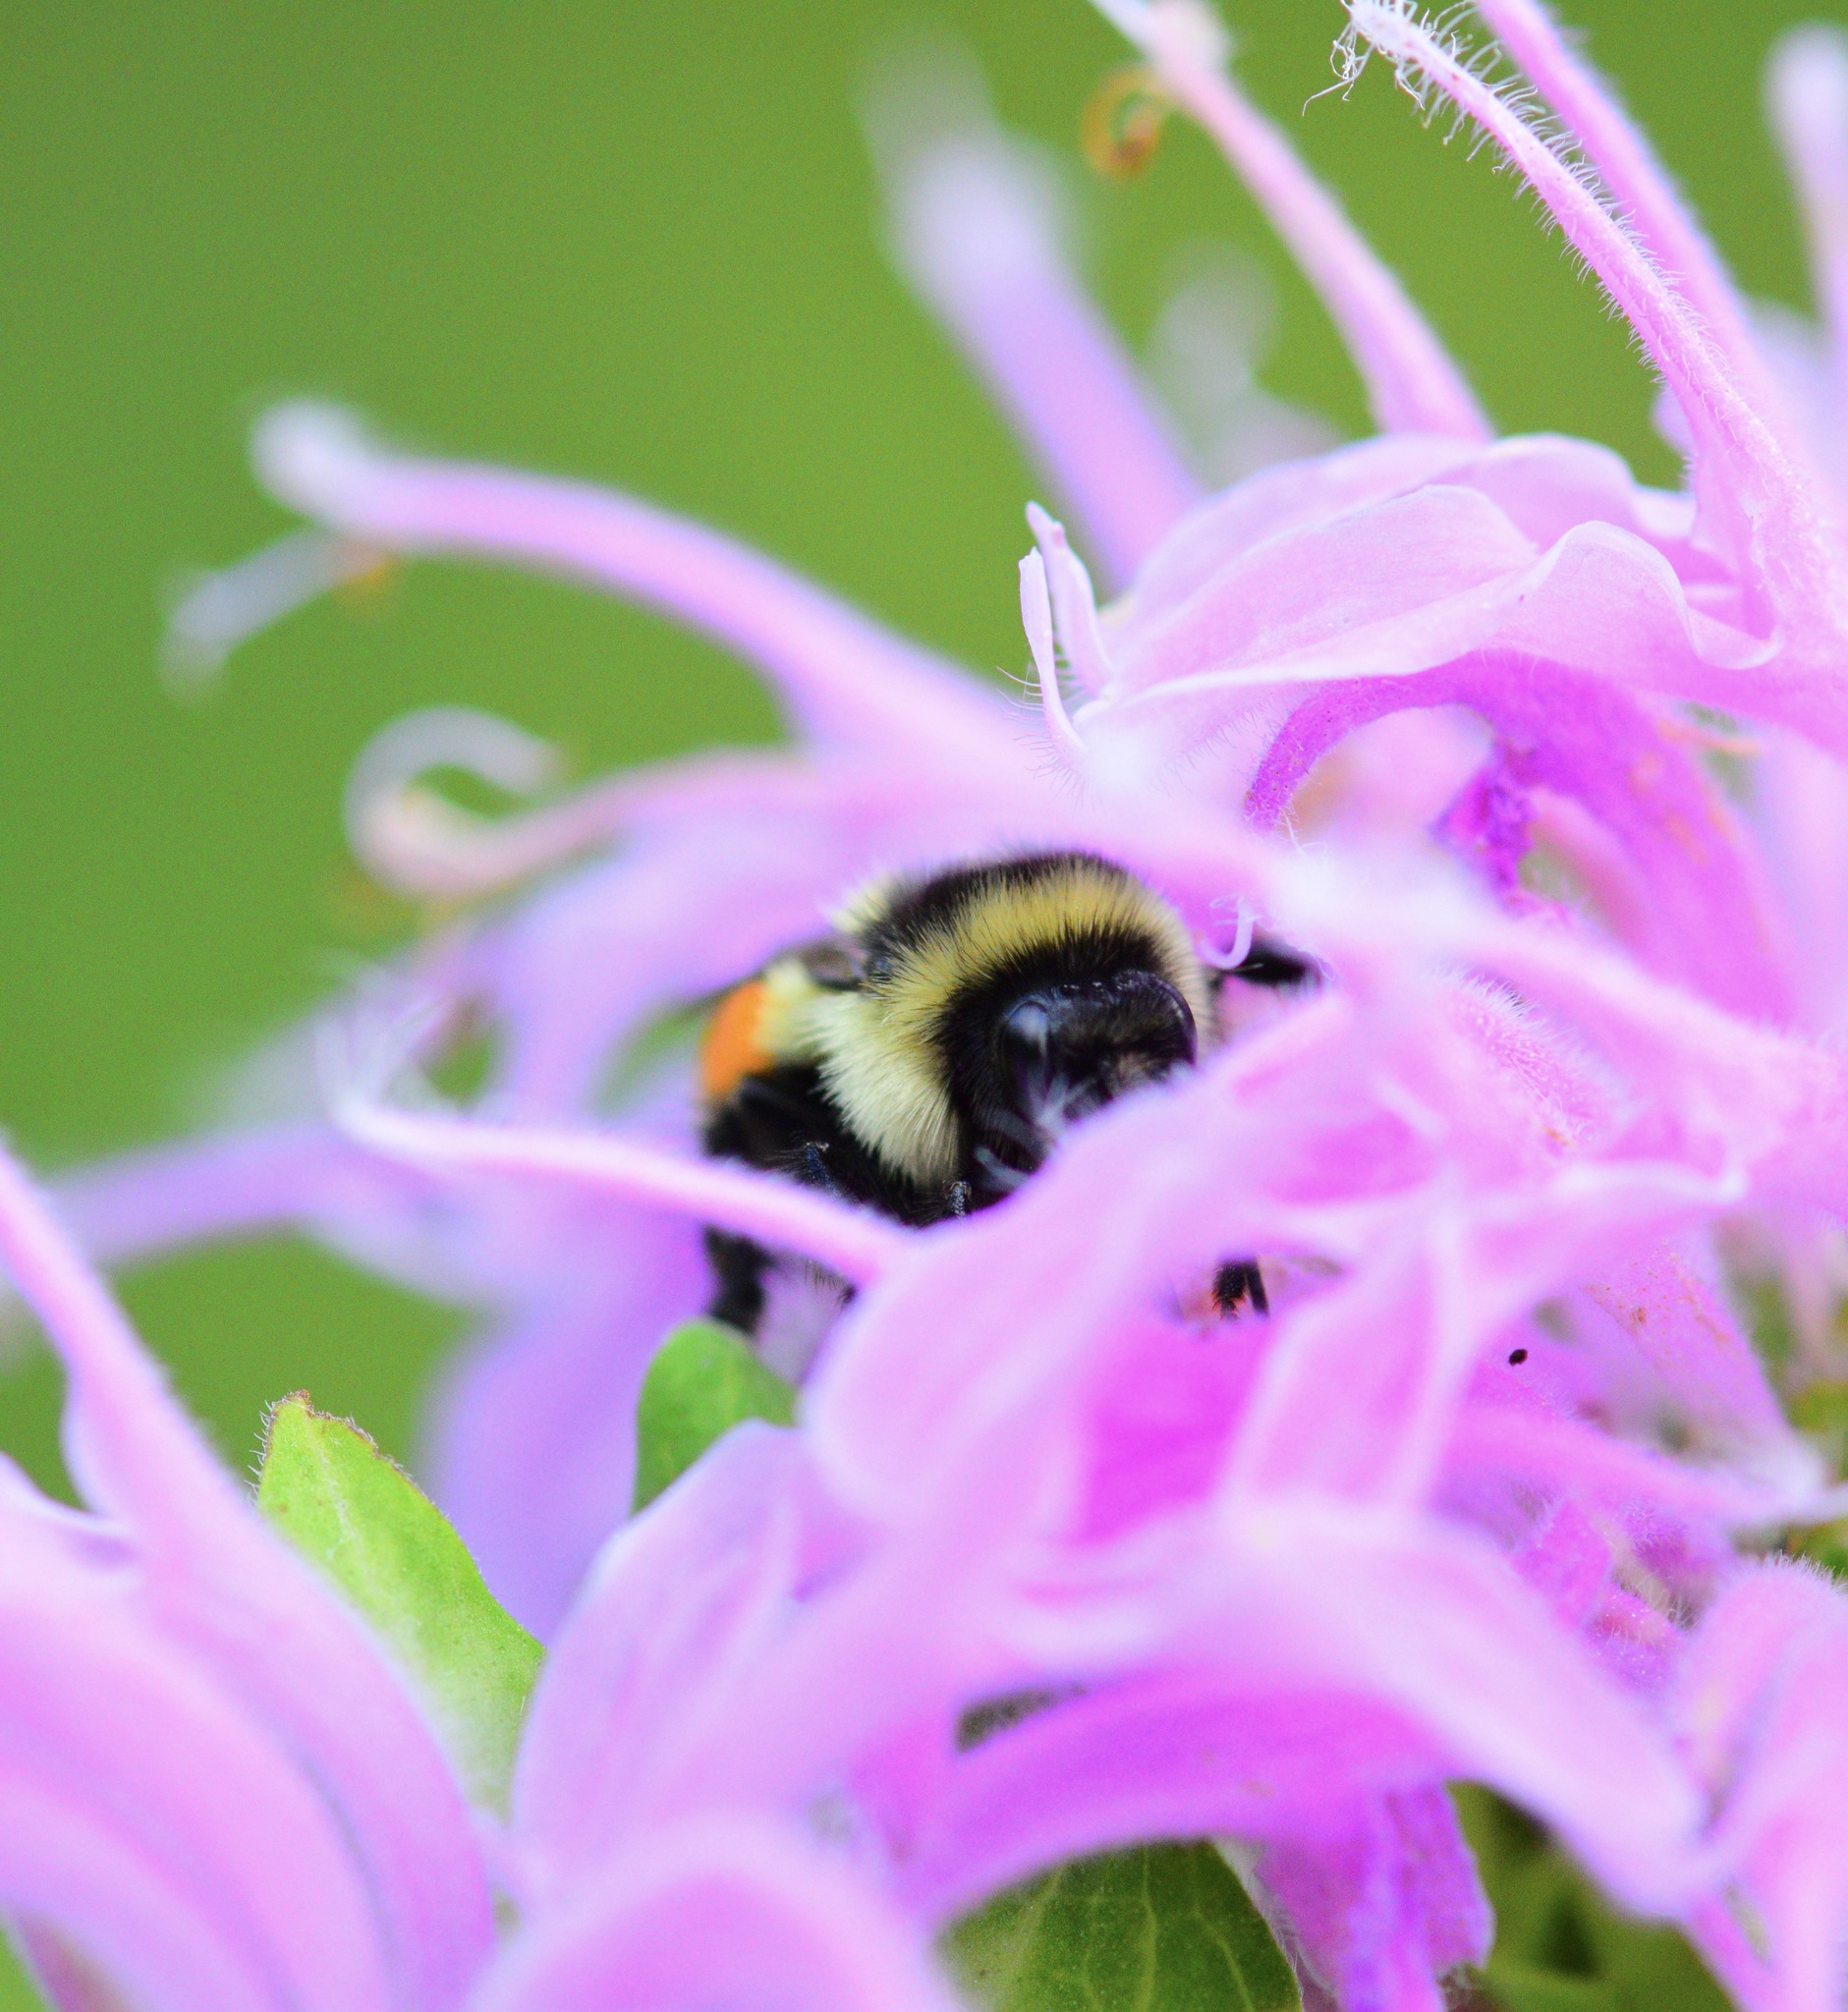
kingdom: Animalia
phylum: Arthropoda
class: Insecta
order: Hymenoptera
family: Apidae
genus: Bombus
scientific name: Bombus ternarius
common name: Tri-colored bumble bee
